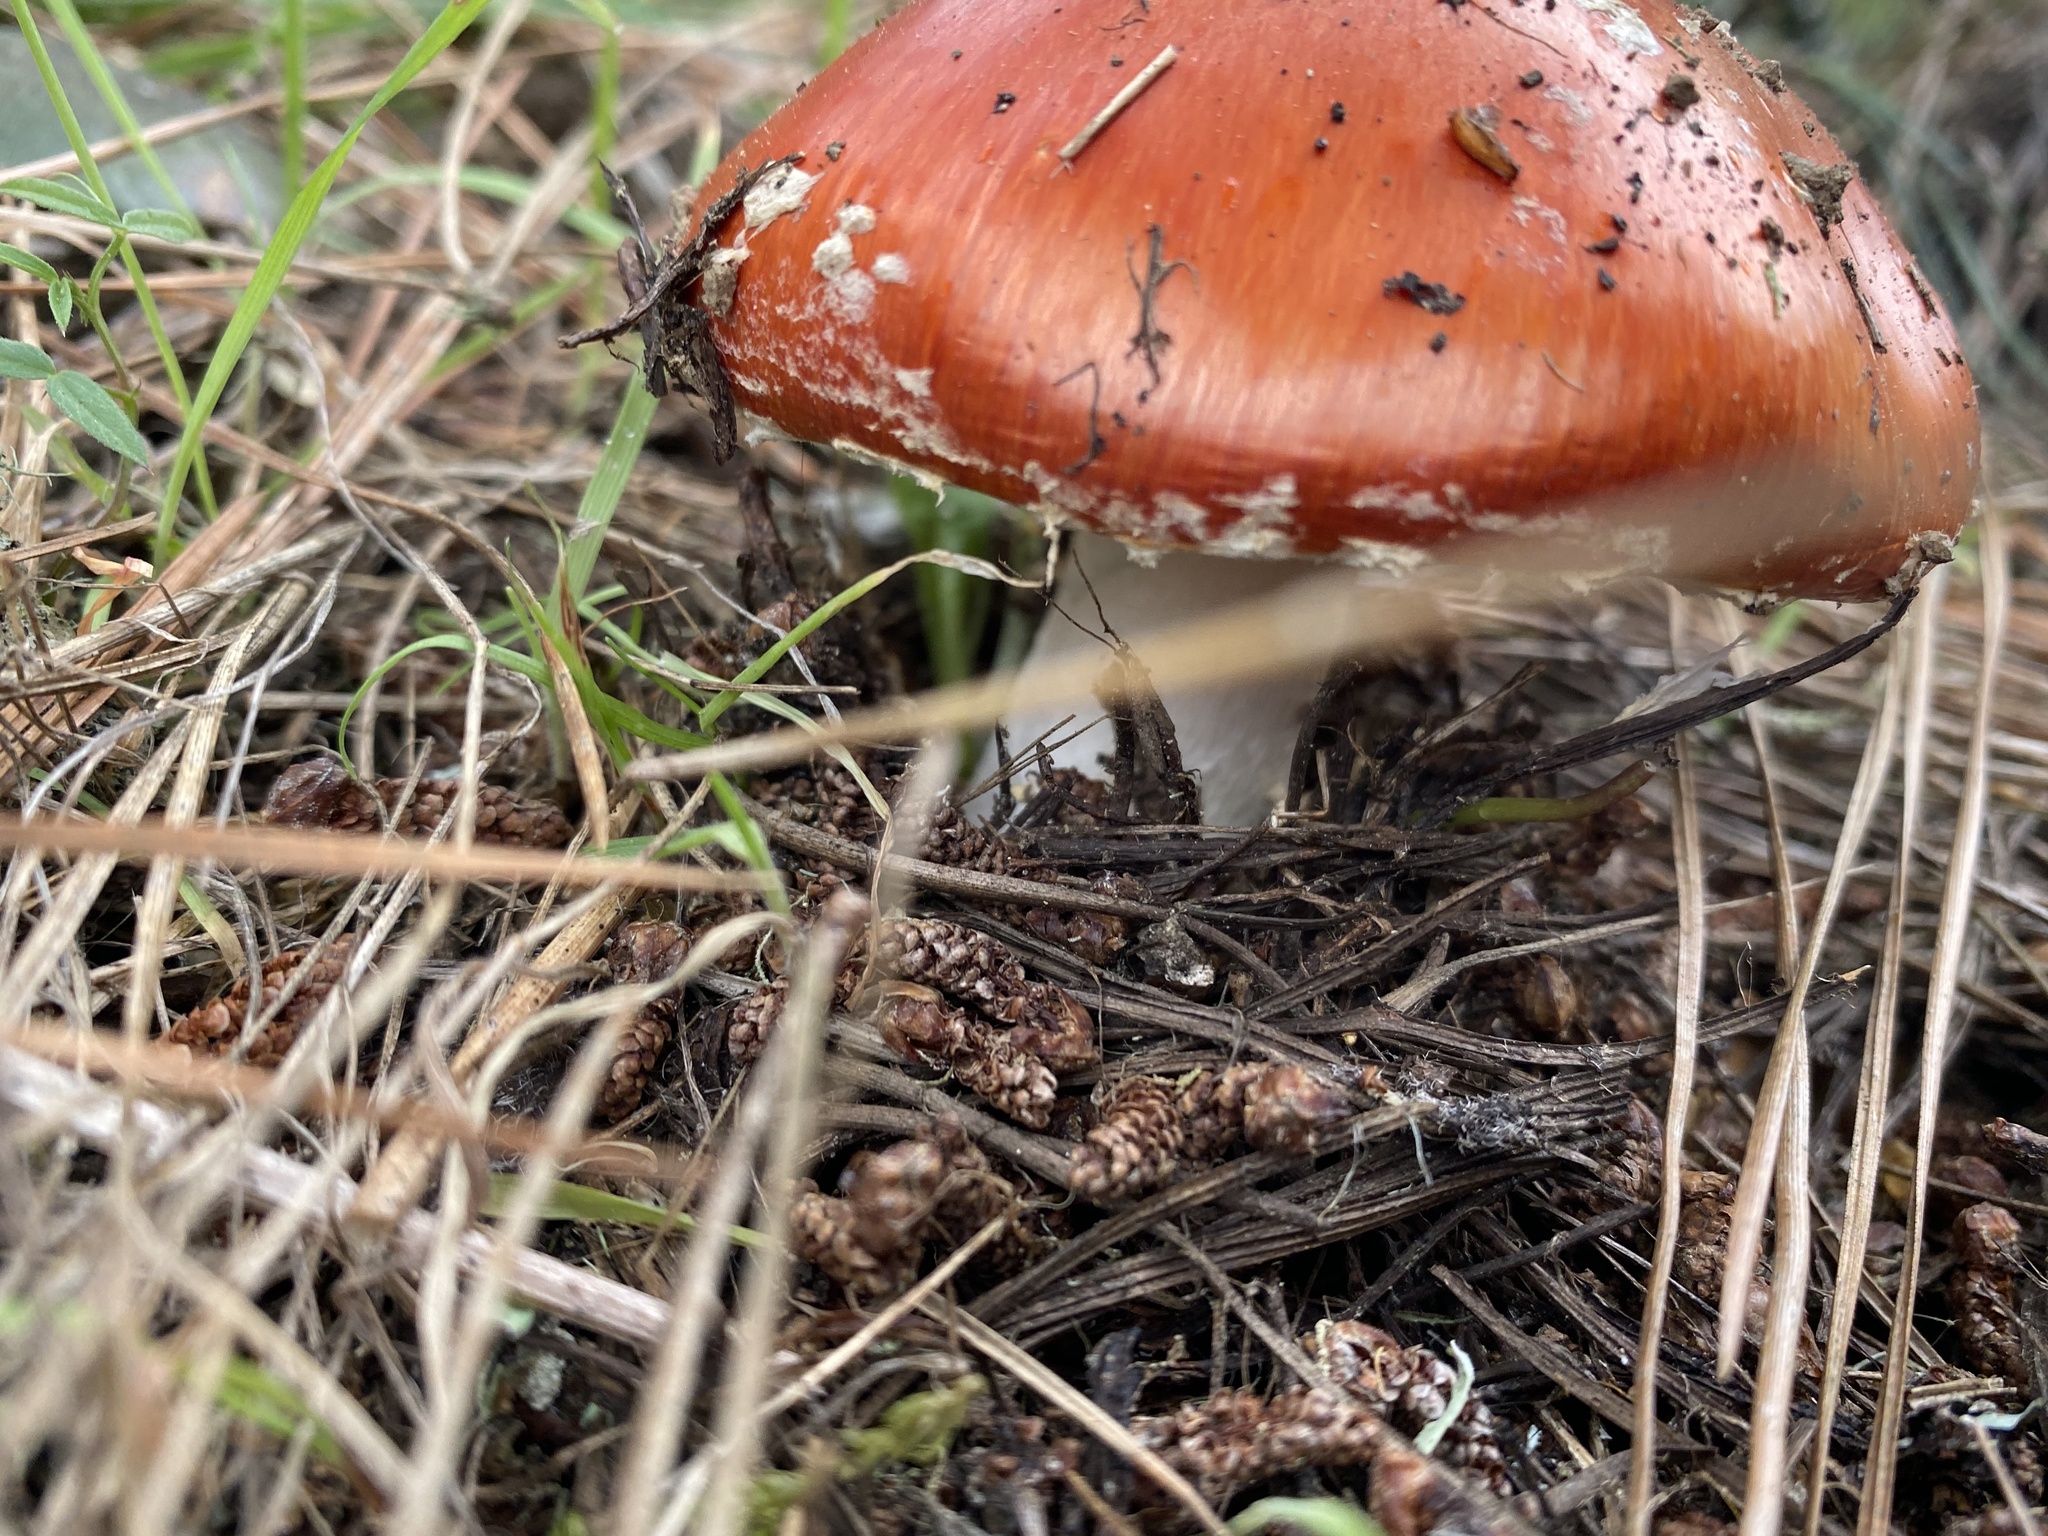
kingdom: Fungi
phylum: Basidiomycota
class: Agaricomycetes
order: Agaricales
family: Amanitaceae
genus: Amanita
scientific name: Amanita muscaria
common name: Fly agaric
